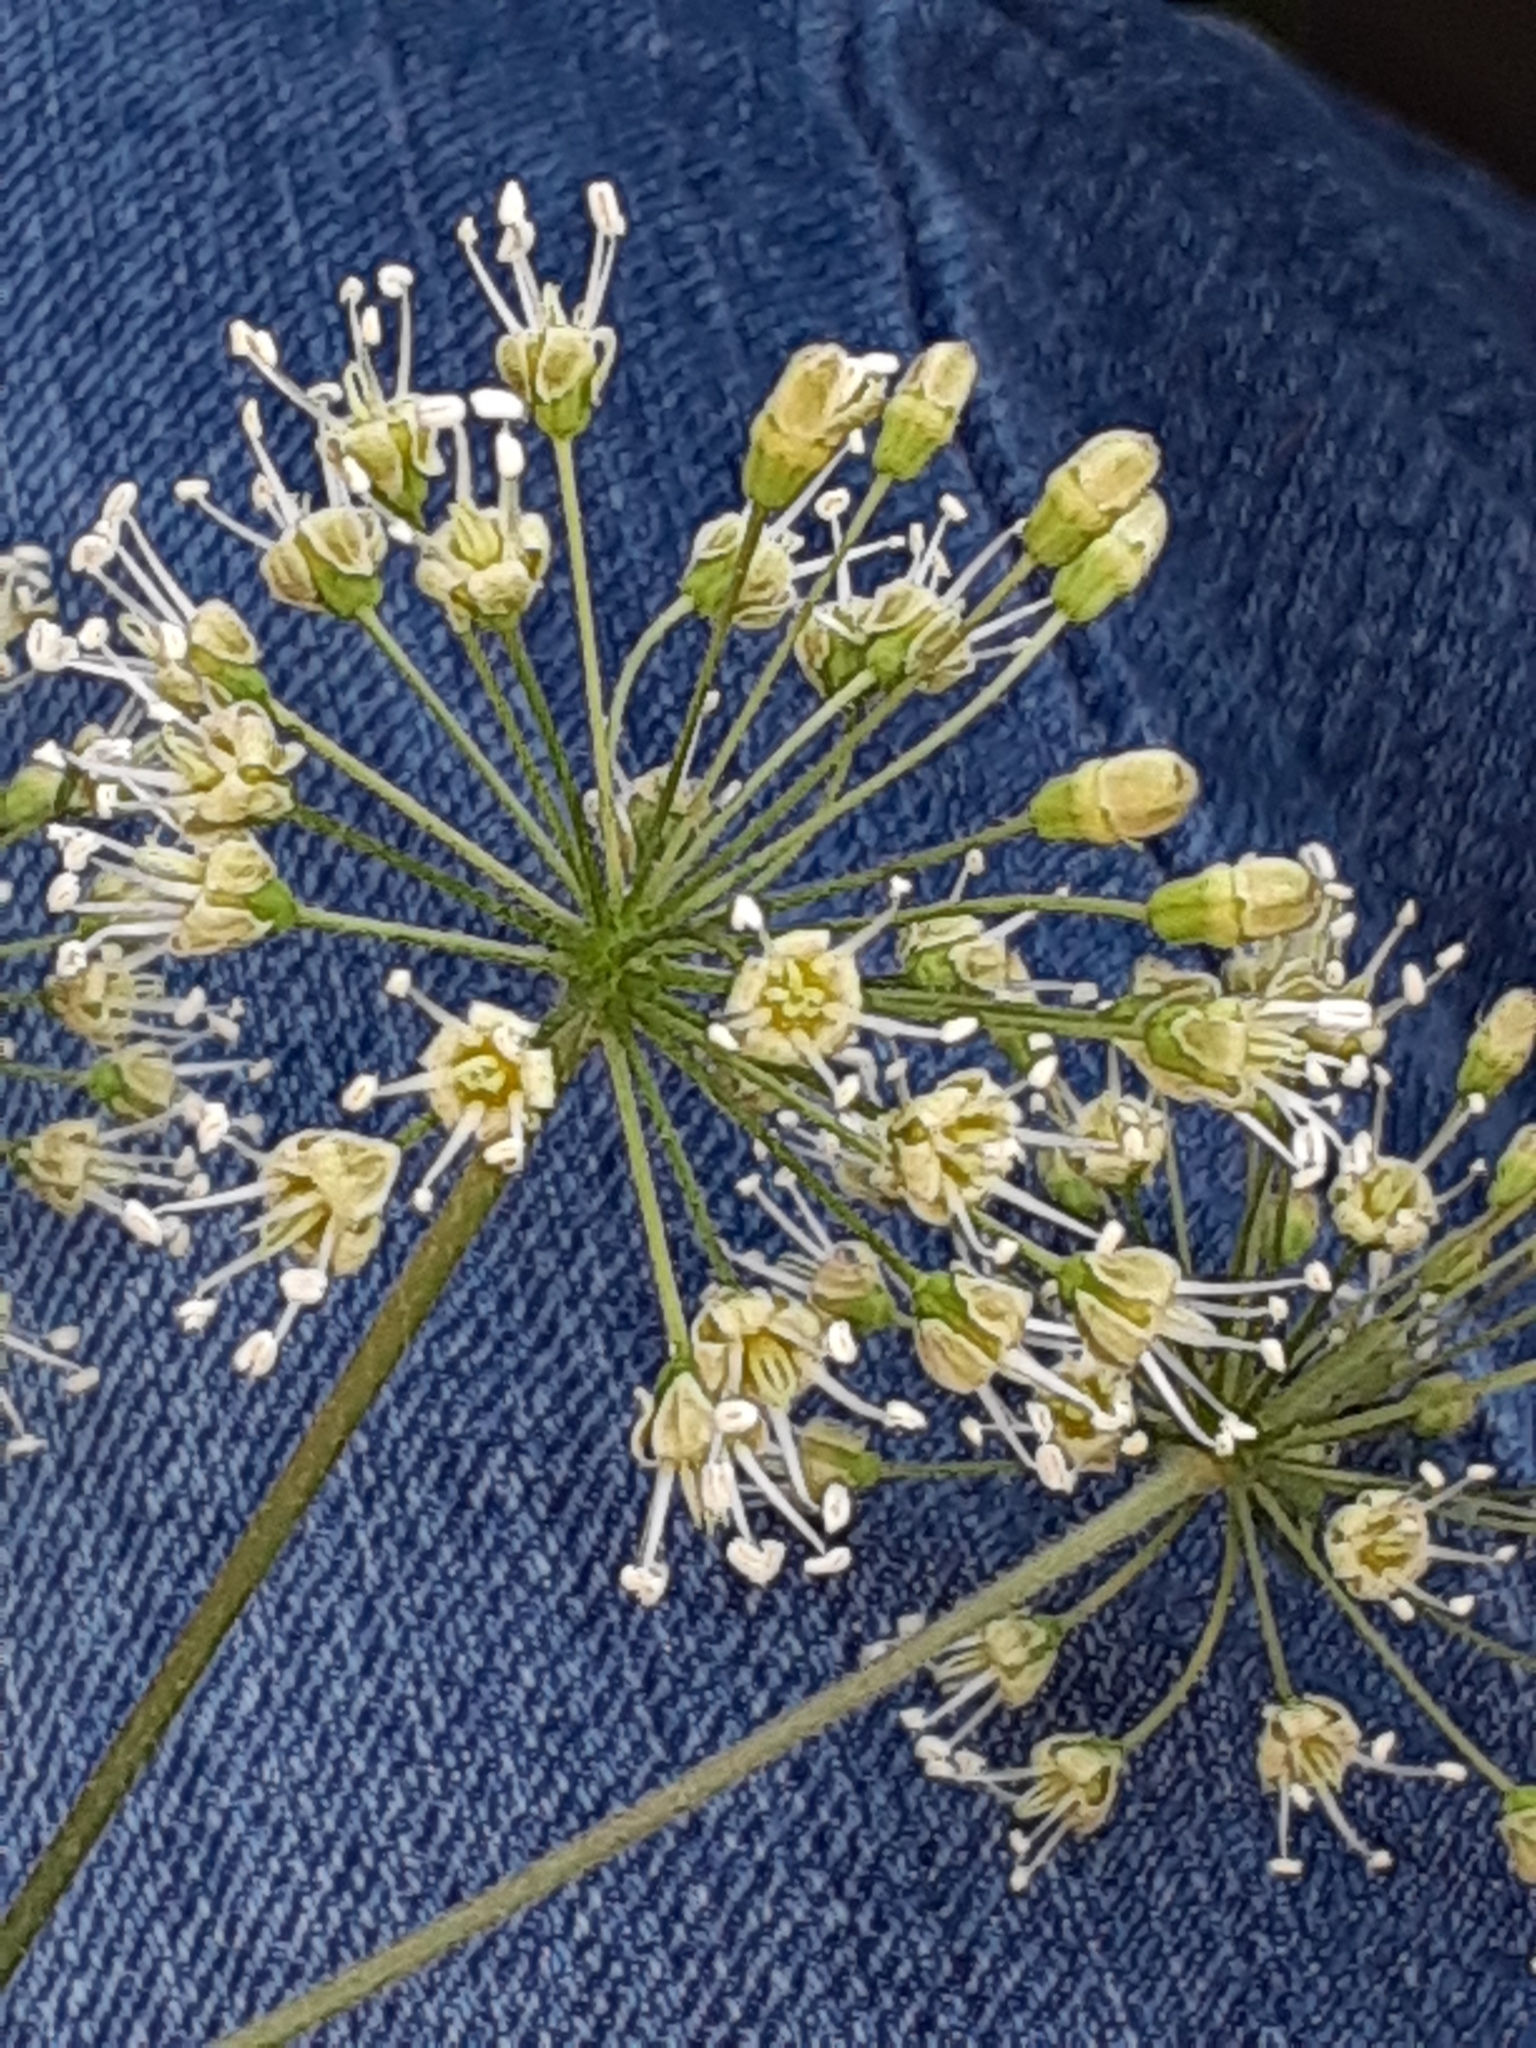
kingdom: Plantae
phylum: Tracheophyta
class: Magnoliopsida
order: Apiales
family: Araliaceae
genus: Aralia
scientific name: Aralia nudicaulis
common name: Wild sarsaparilla
